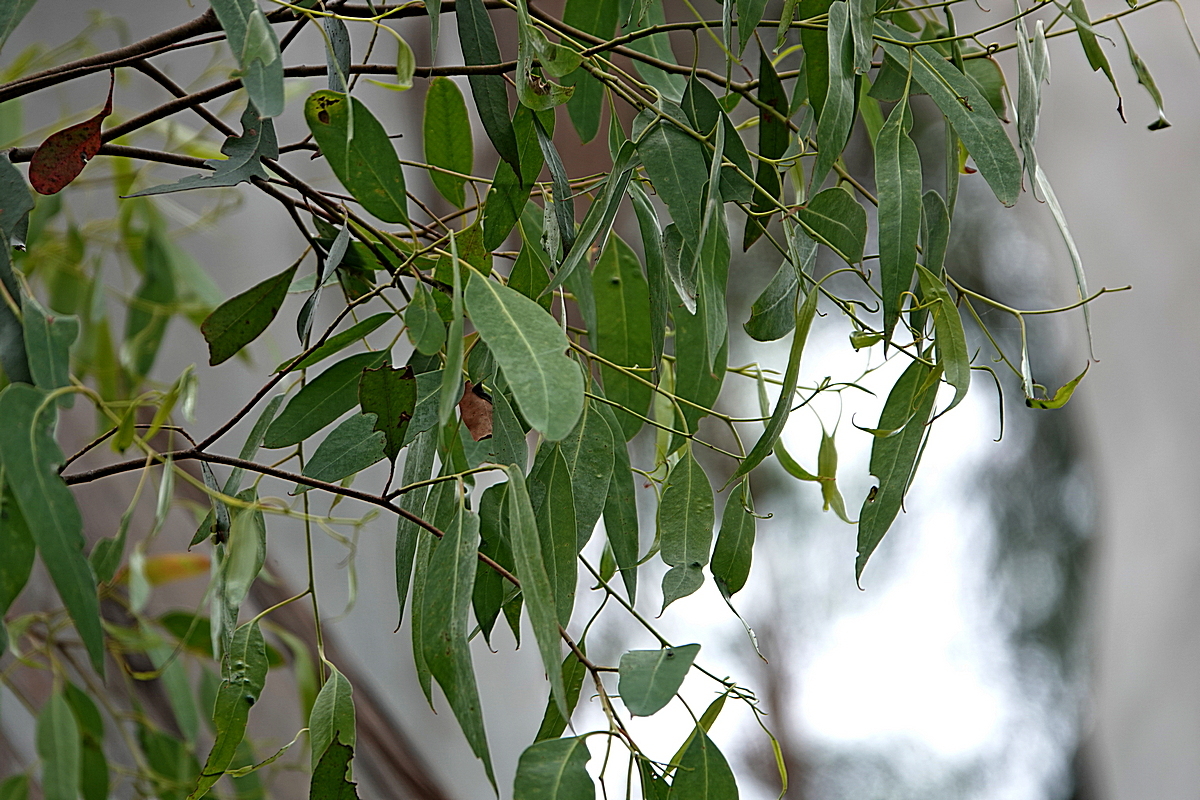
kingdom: Plantae
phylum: Tracheophyta
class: Magnoliopsida
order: Myrtales
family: Myrtaceae
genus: Eucalyptus
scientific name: Eucalyptus ovata
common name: Black-gum
